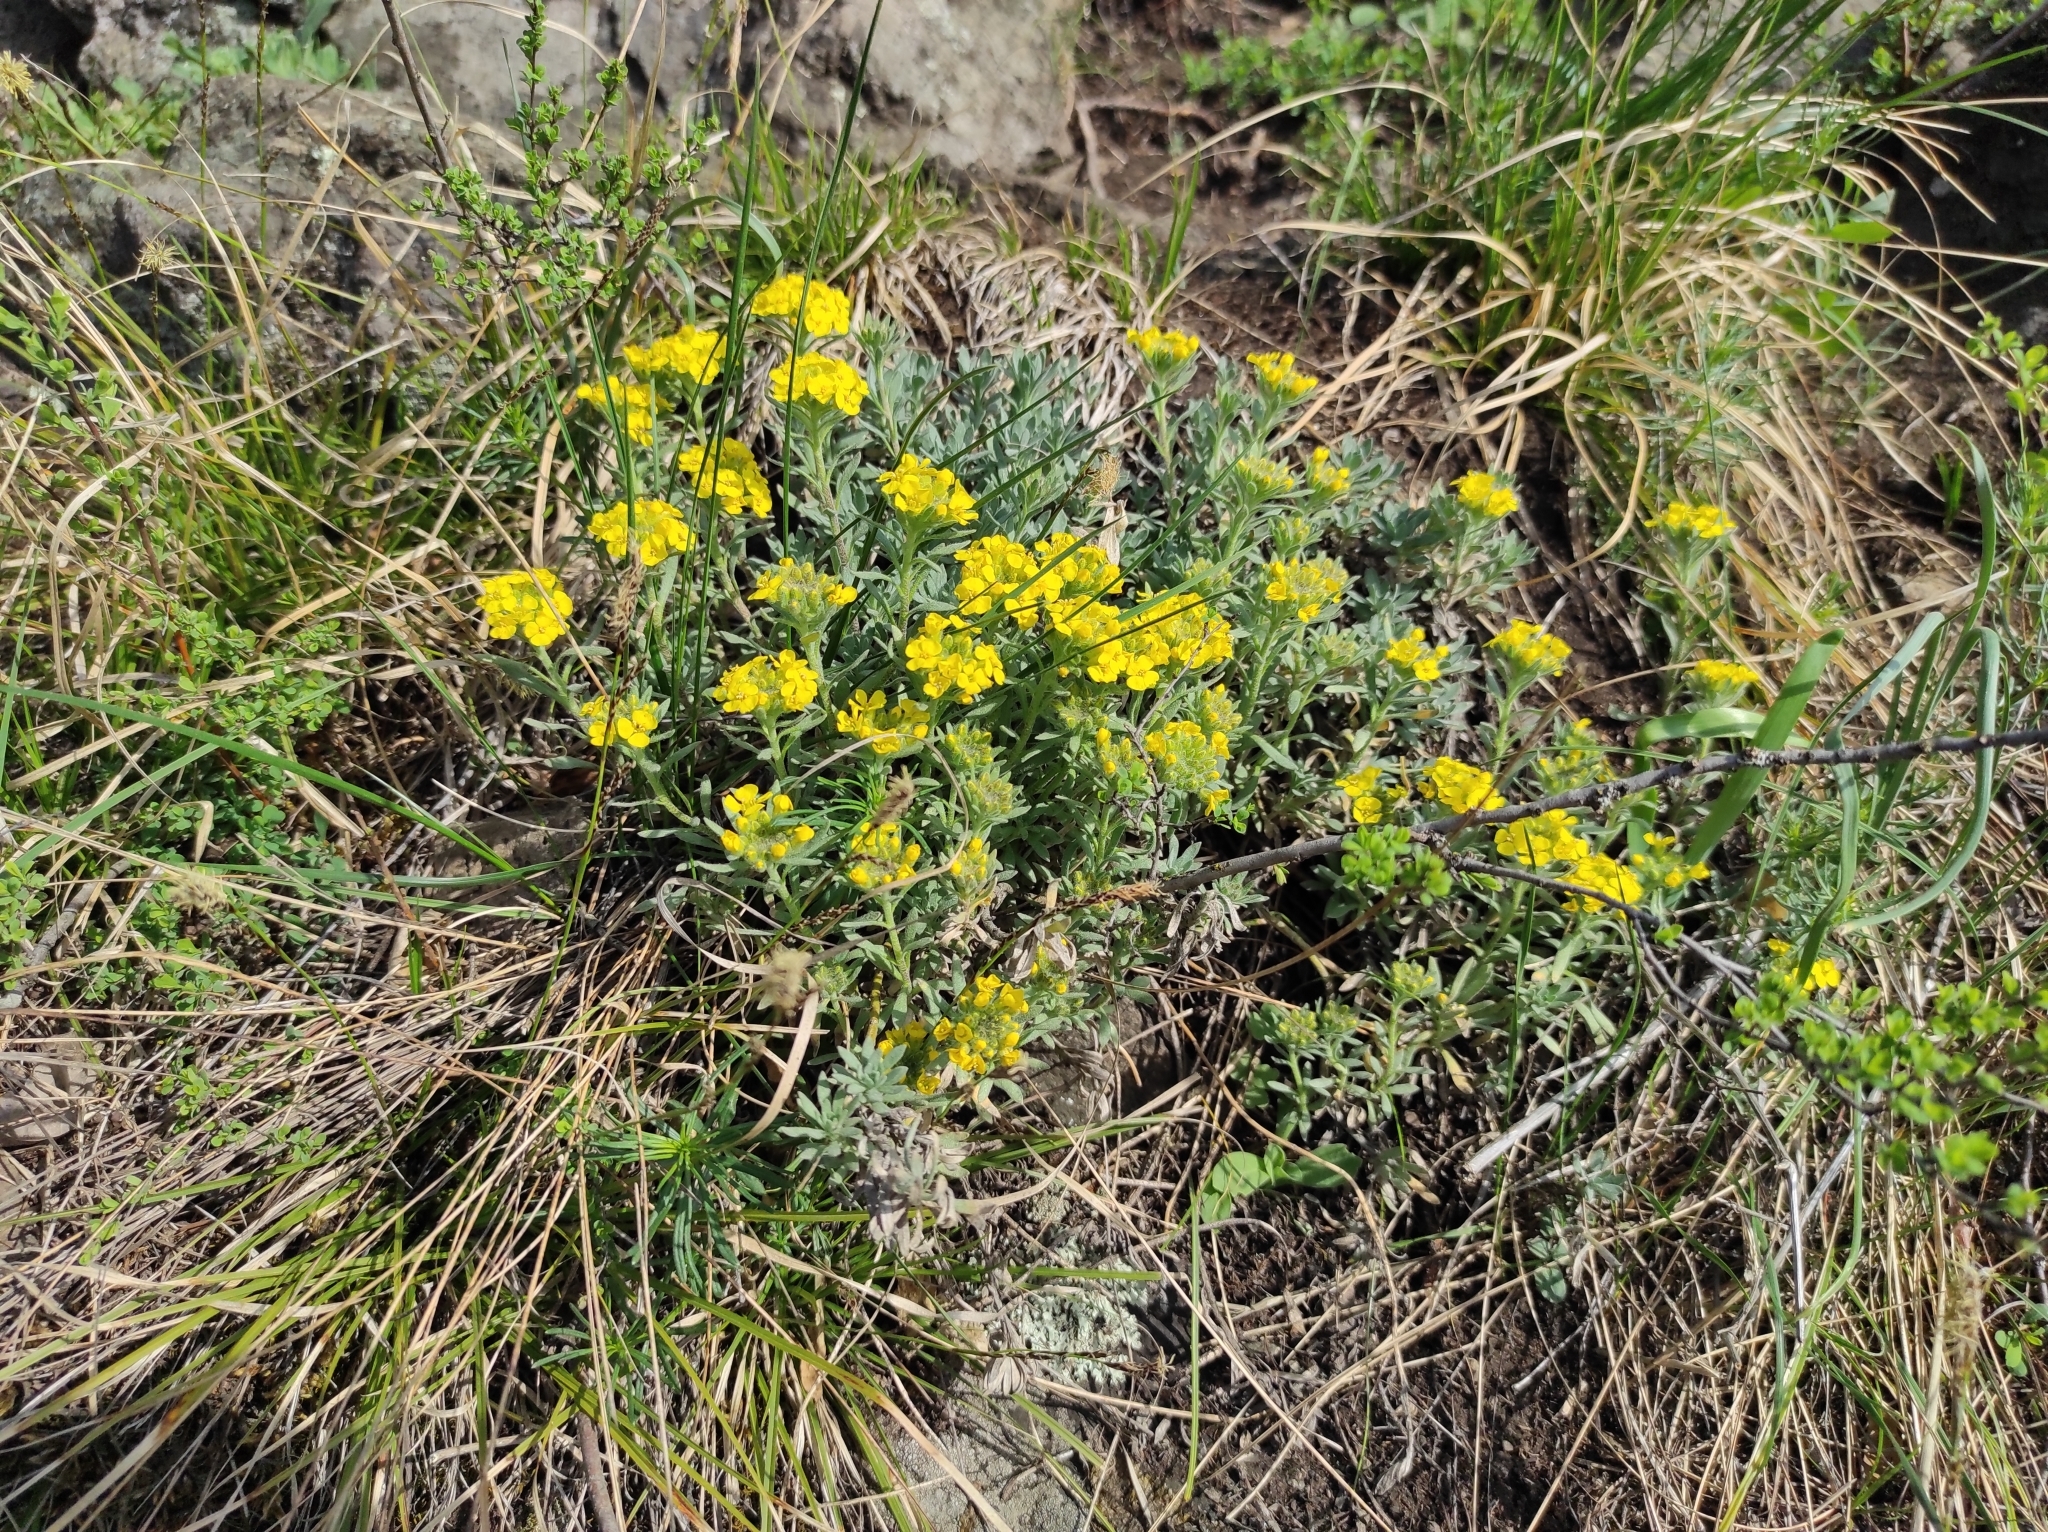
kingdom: Plantae
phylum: Tracheophyta
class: Magnoliopsida
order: Brassicales
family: Brassicaceae
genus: Alyssum
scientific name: Alyssum lenense
